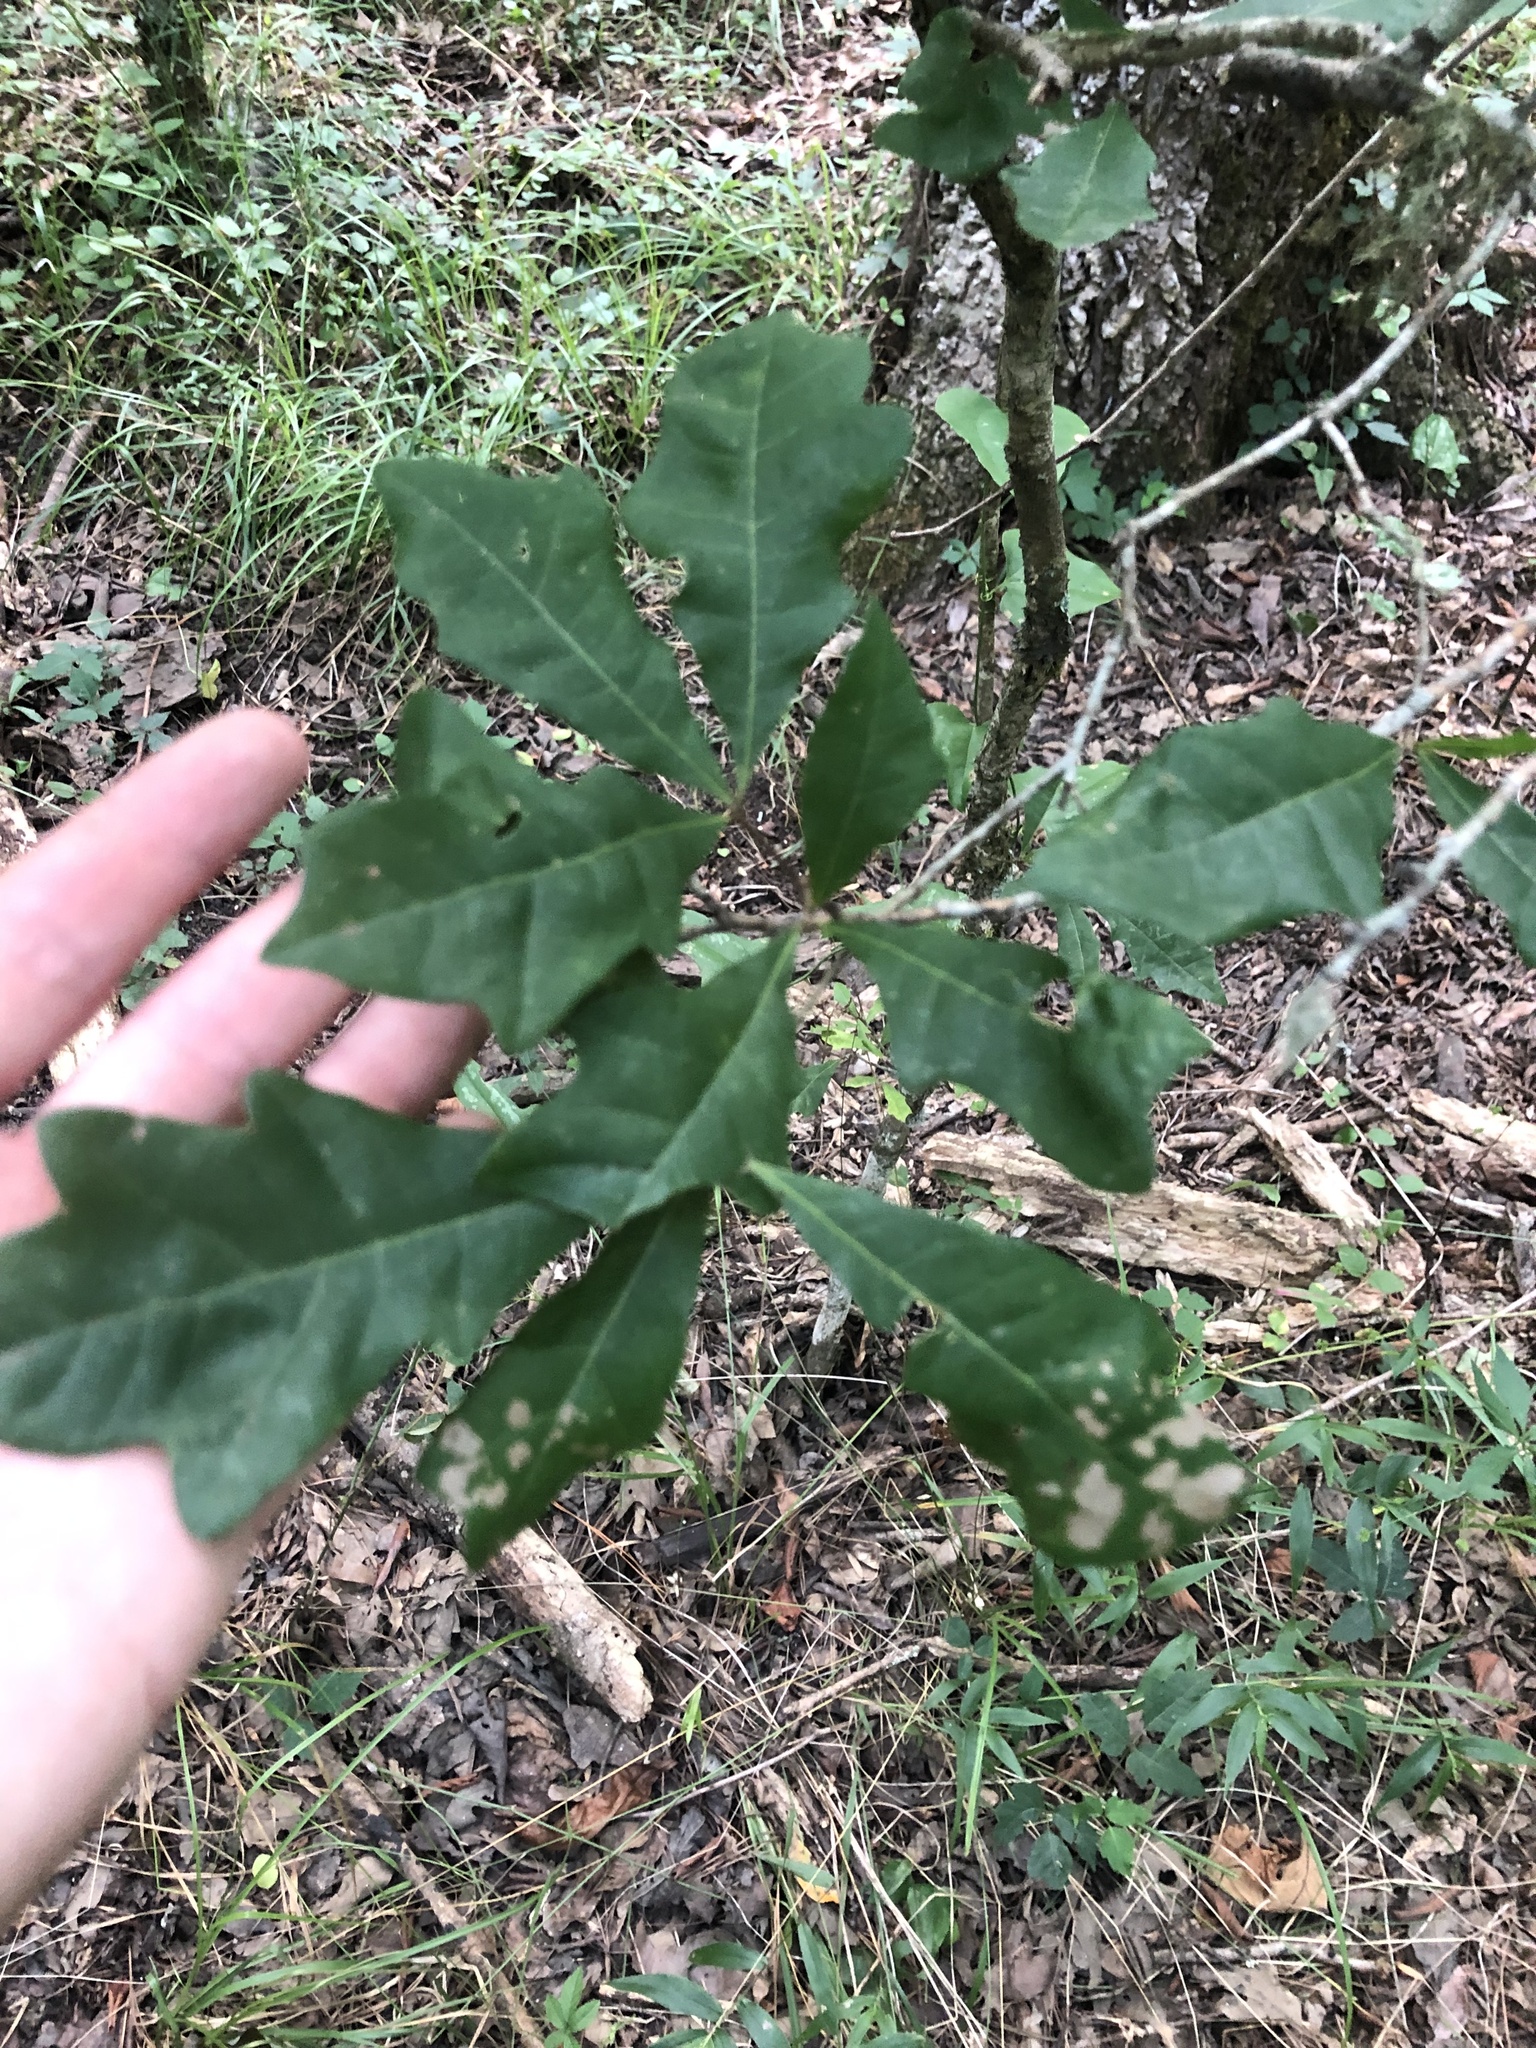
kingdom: Plantae
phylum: Tracheophyta
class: Magnoliopsida
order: Fagales
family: Fagaceae
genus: Quercus
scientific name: Quercus sinuata
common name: Durand oak
